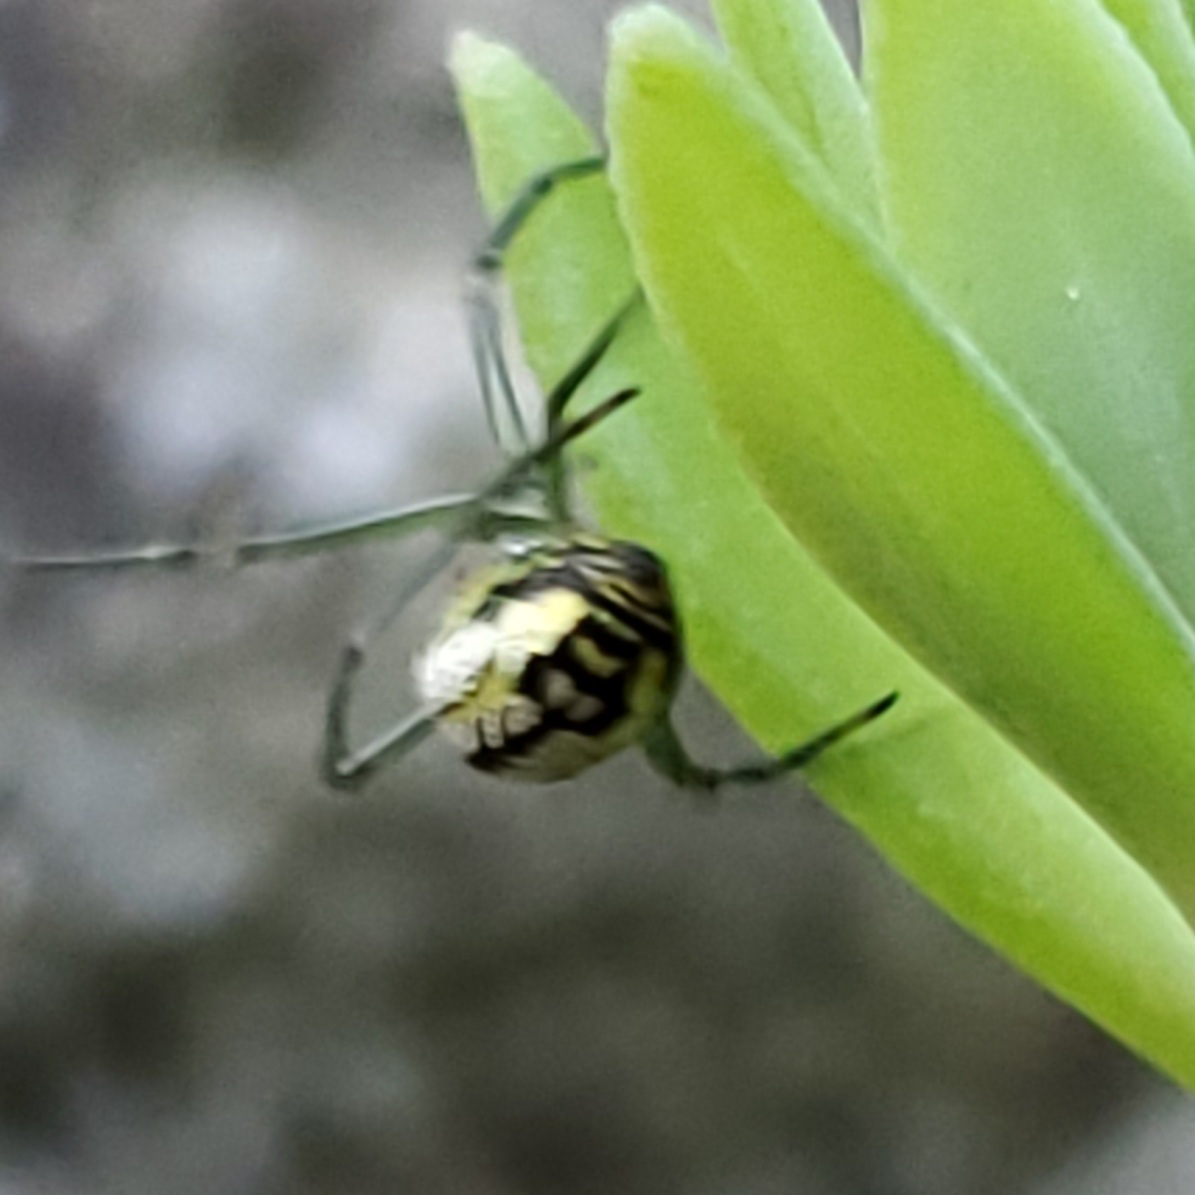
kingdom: Animalia
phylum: Arthropoda
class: Arachnida
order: Araneae
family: Tetragnathidae
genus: Leucauge
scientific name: Leucauge venusta
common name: Longjawed orb weavers
